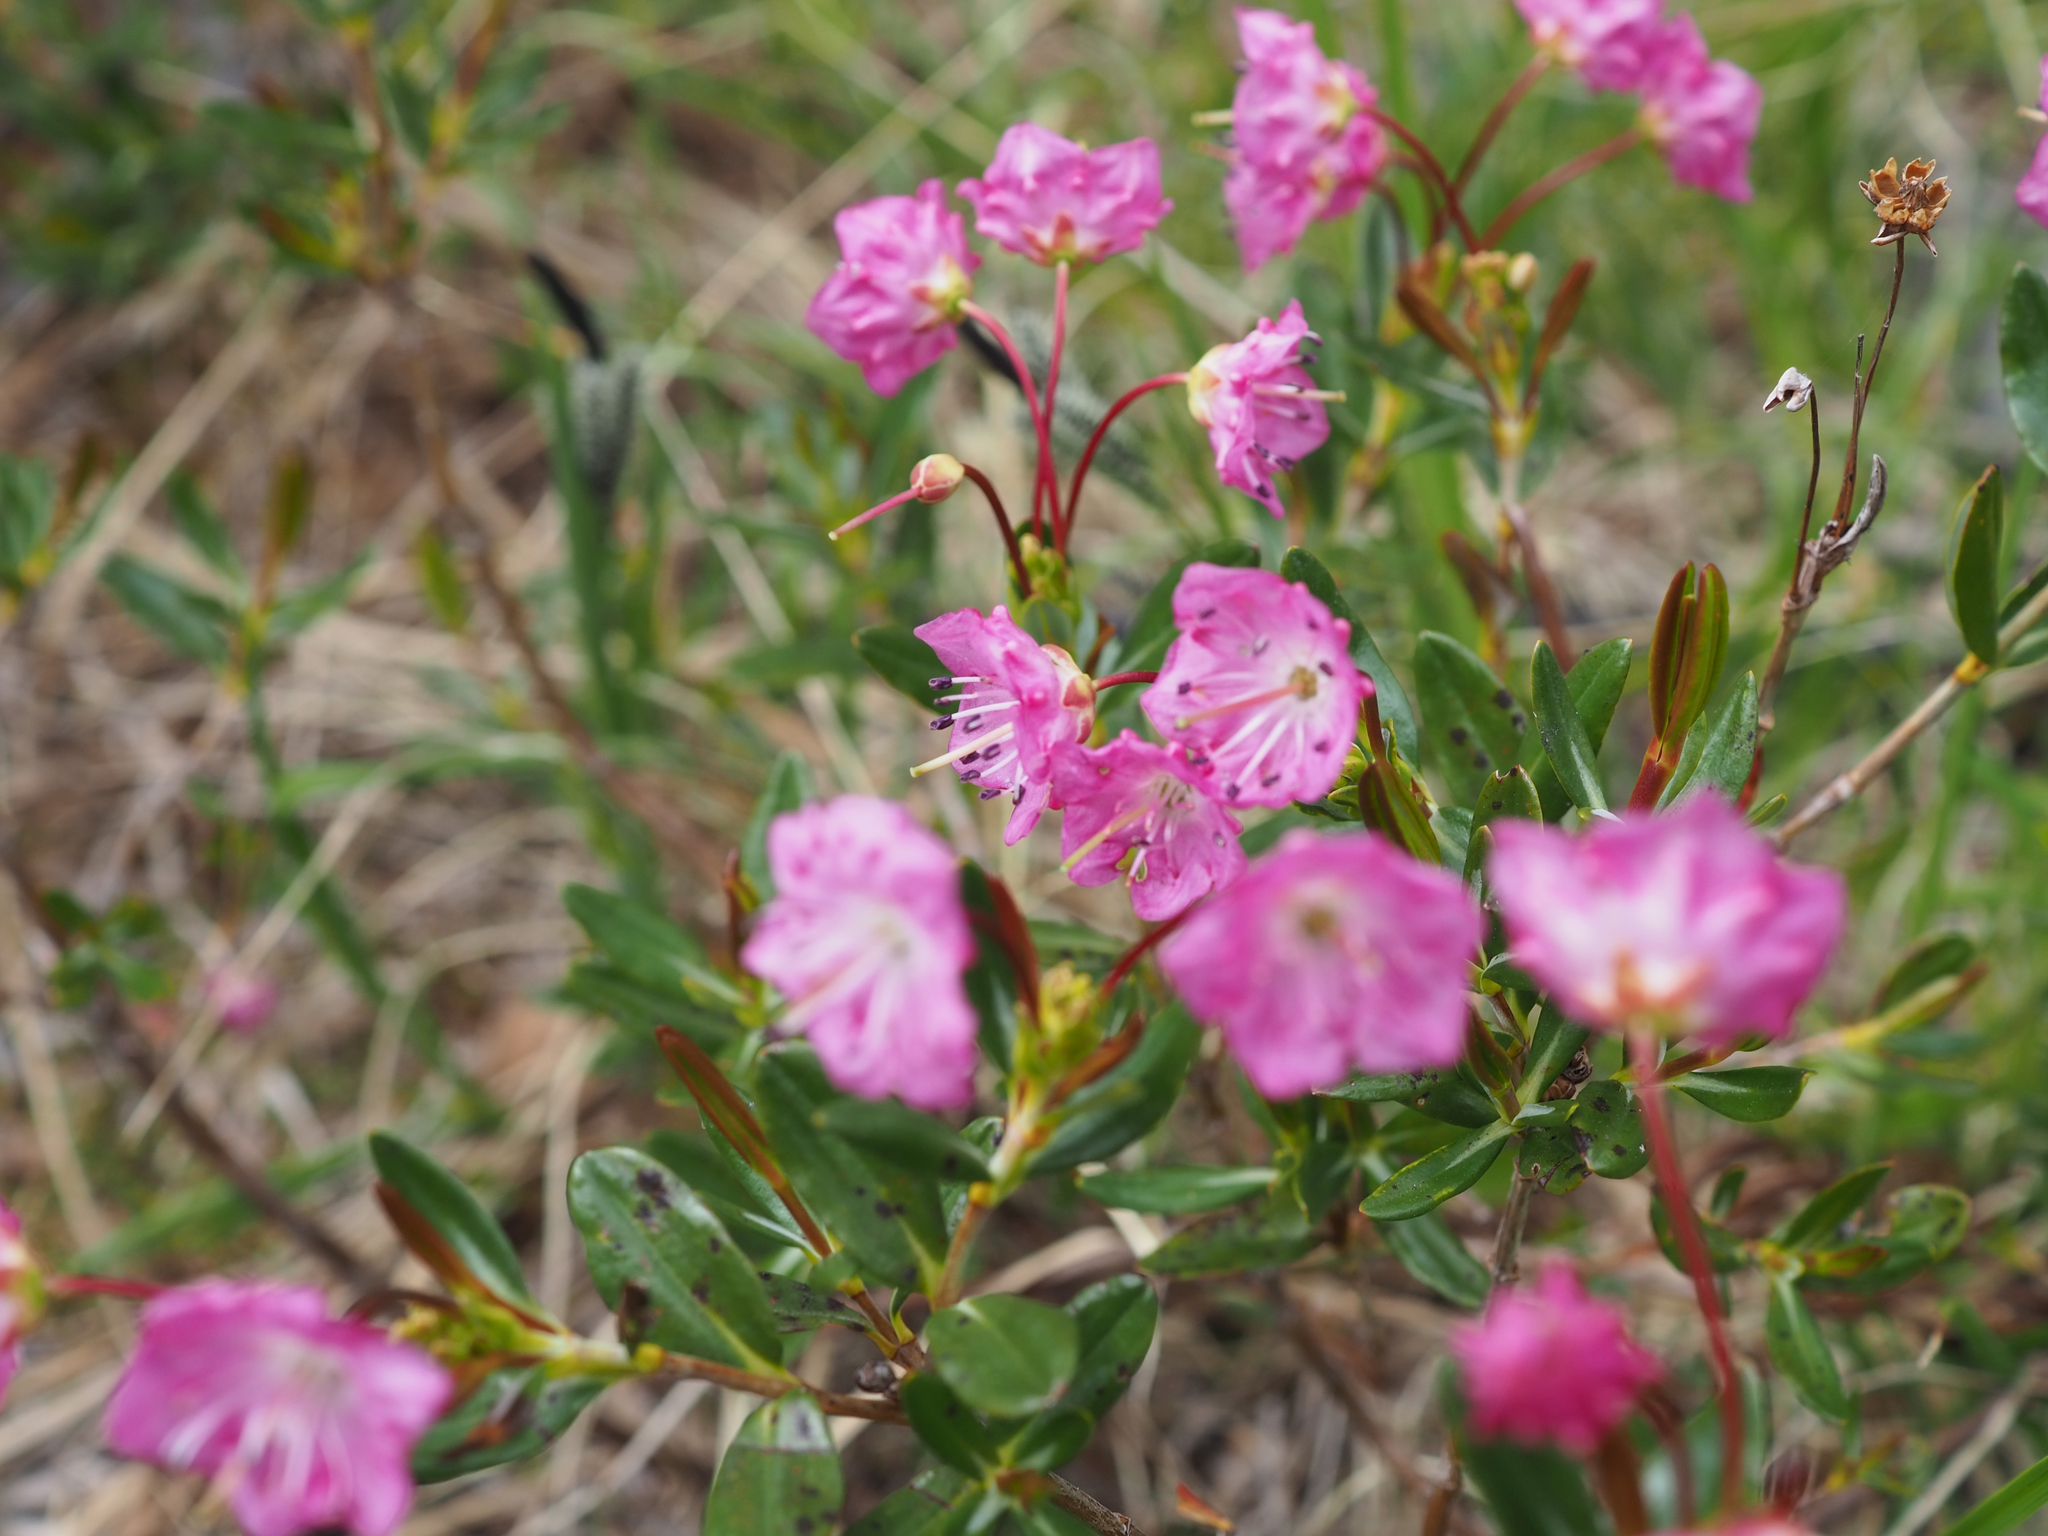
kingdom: Plantae
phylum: Tracheophyta
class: Magnoliopsida
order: Ericales
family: Ericaceae
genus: Kalmia
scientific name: Kalmia microphylla
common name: Alpine bog laurel
